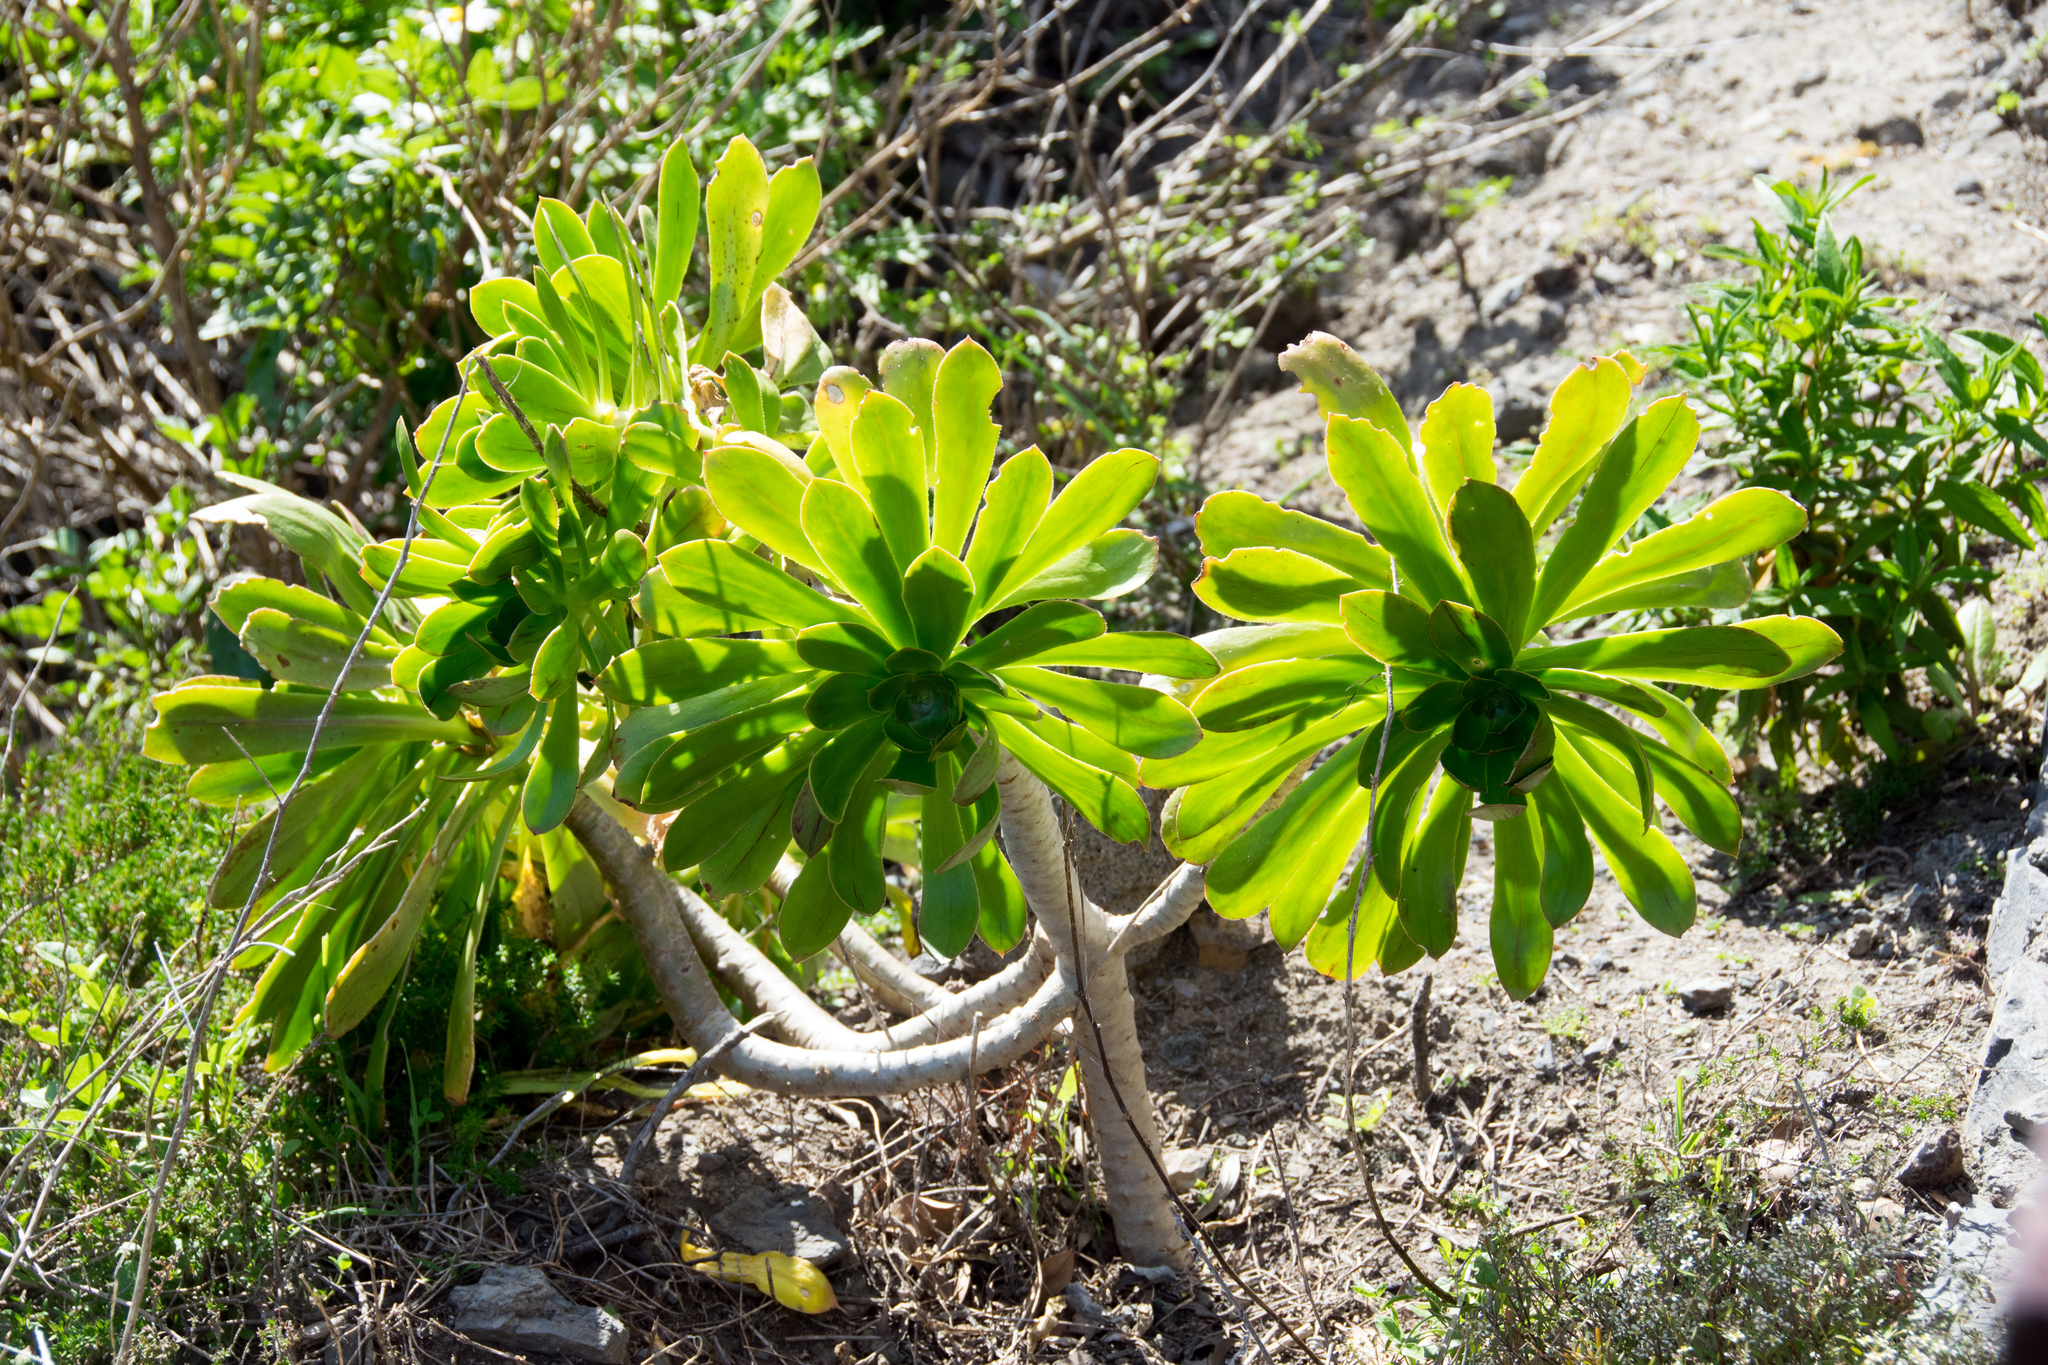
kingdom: Plantae
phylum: Tracheophyta
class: Magnoliopsida
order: Saxifragales
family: Crassulaceae
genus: Aeonium
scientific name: Aeonium arboreum
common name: Tree aeonium
